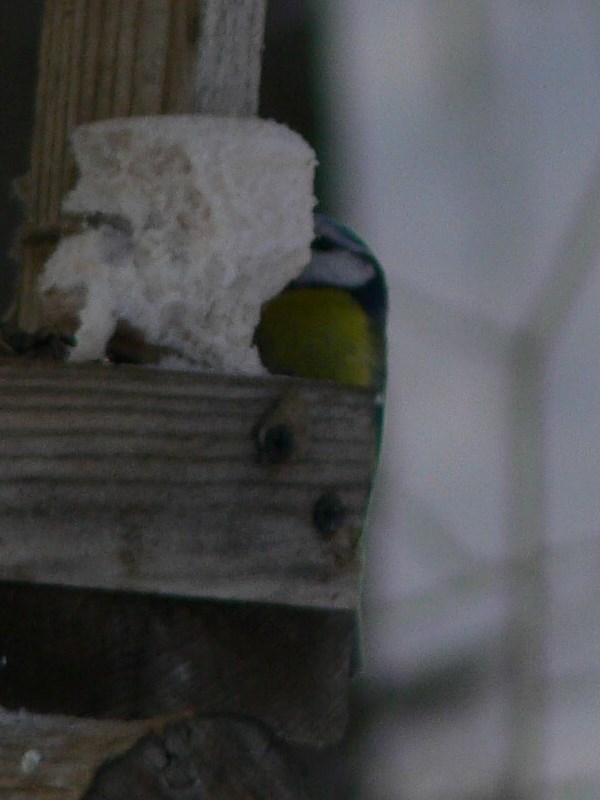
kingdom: Animalia
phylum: Chordata
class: Aves
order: Passeriformes
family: Paridae
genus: Cyanistes
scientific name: Cyanistes caeruleus
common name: Eurasian blue tit
